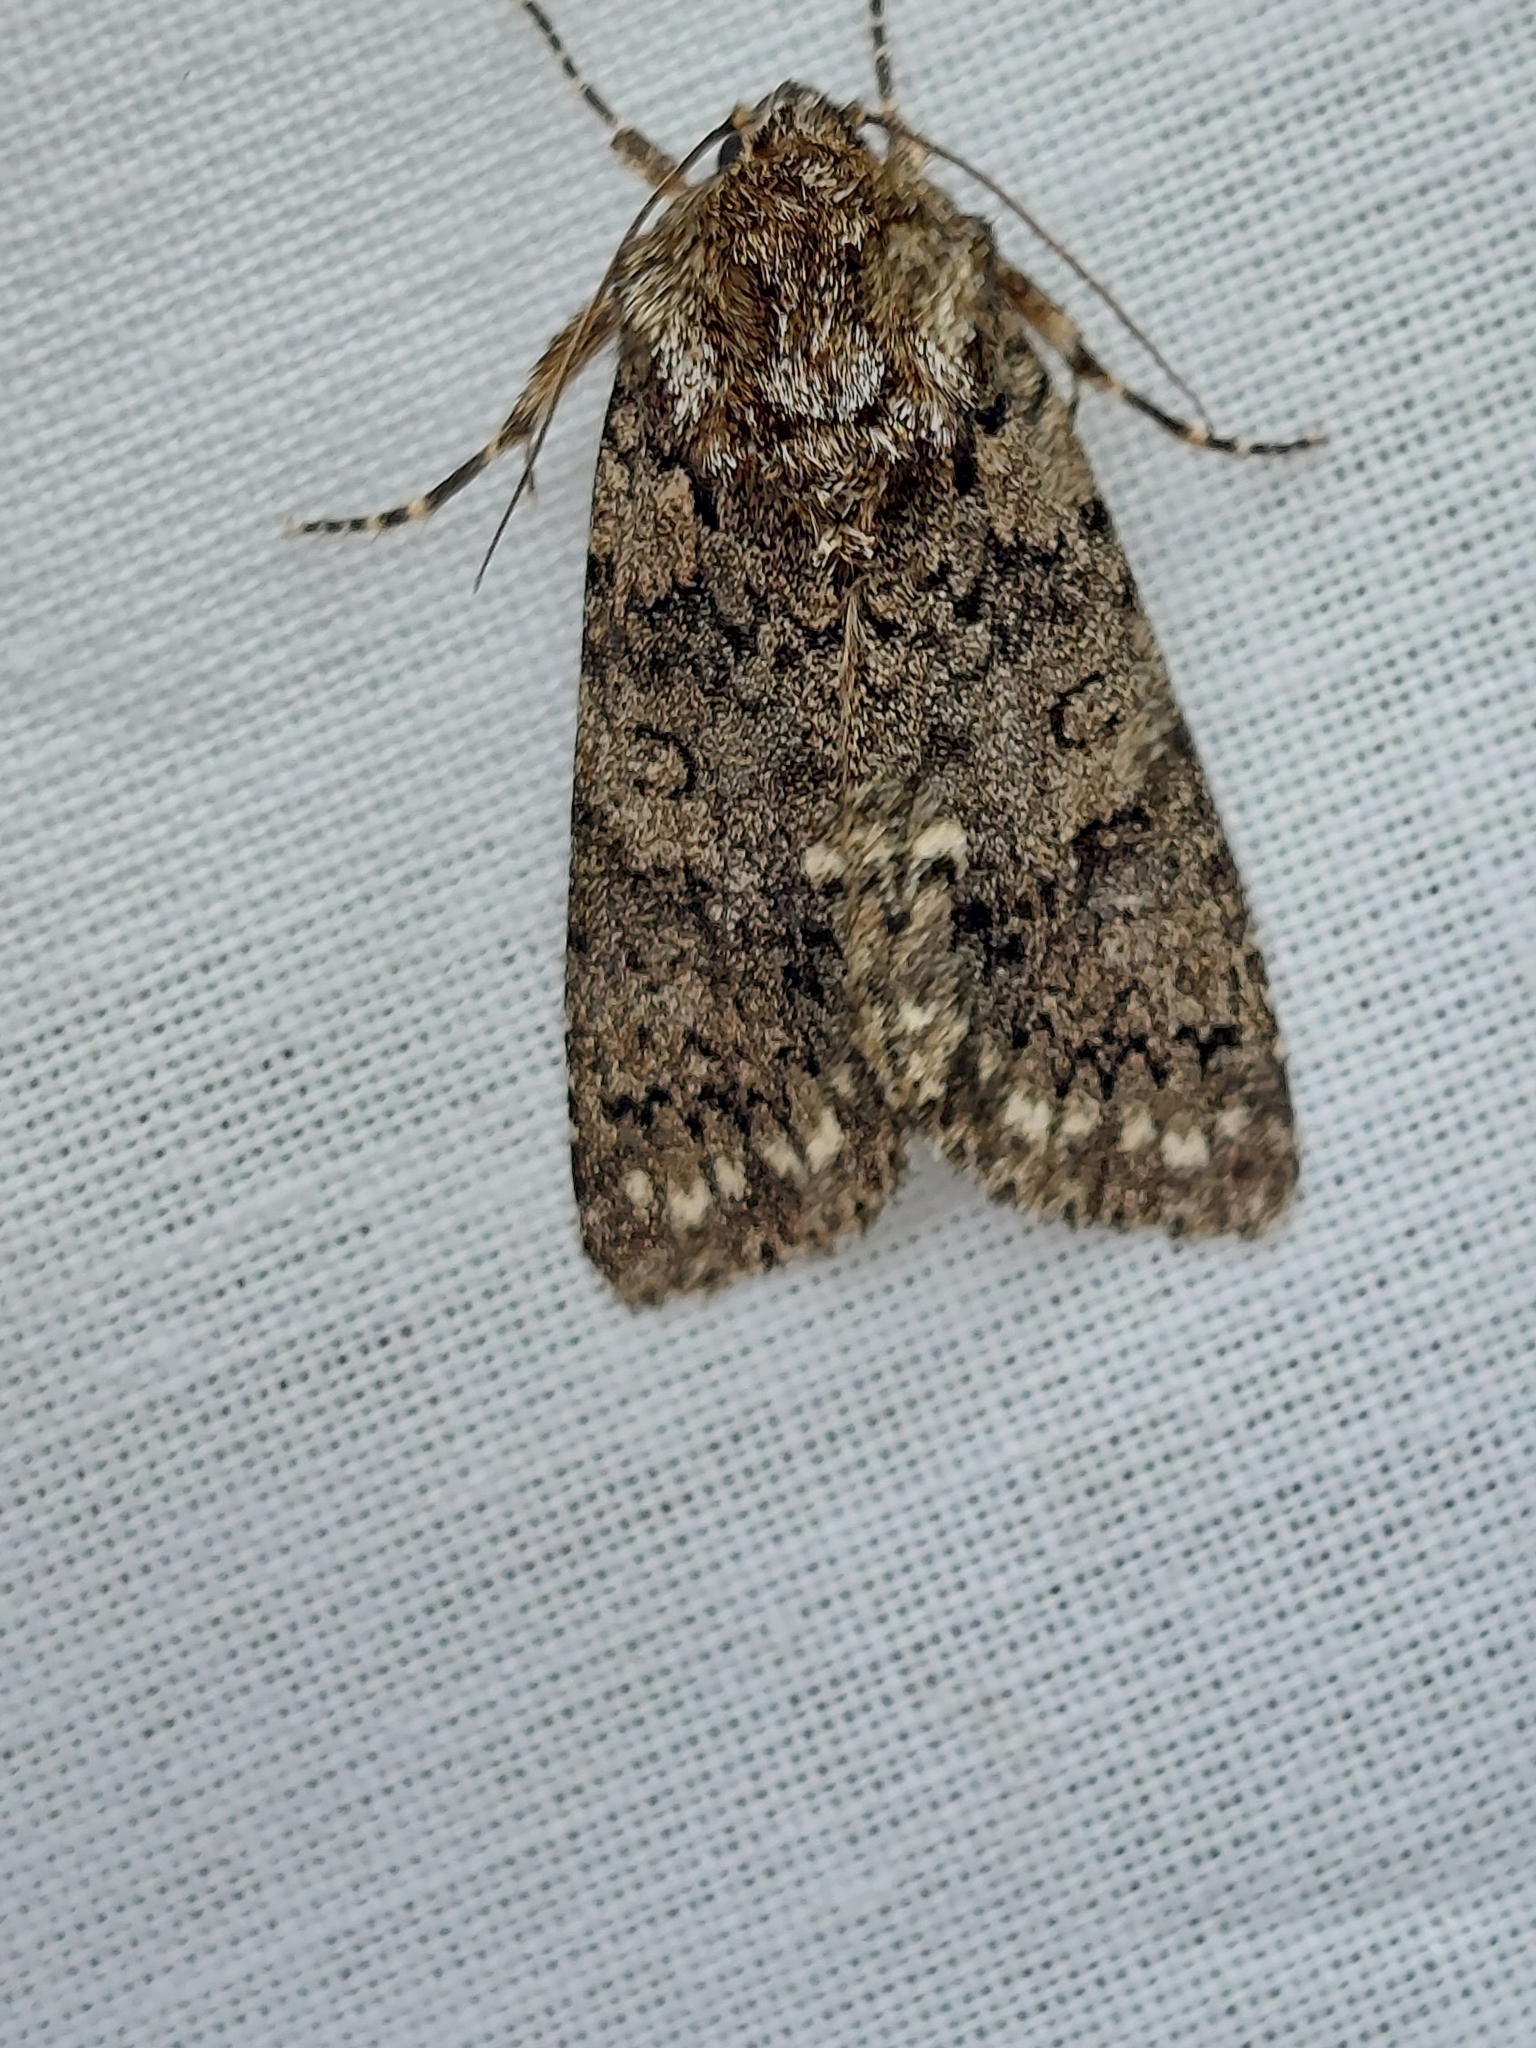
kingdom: Animalia
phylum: Arthropoda
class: Insecta
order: Lepidoptera
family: Noctuidae
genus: Acronicta
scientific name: Acronicta rumicis
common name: Knot grass
